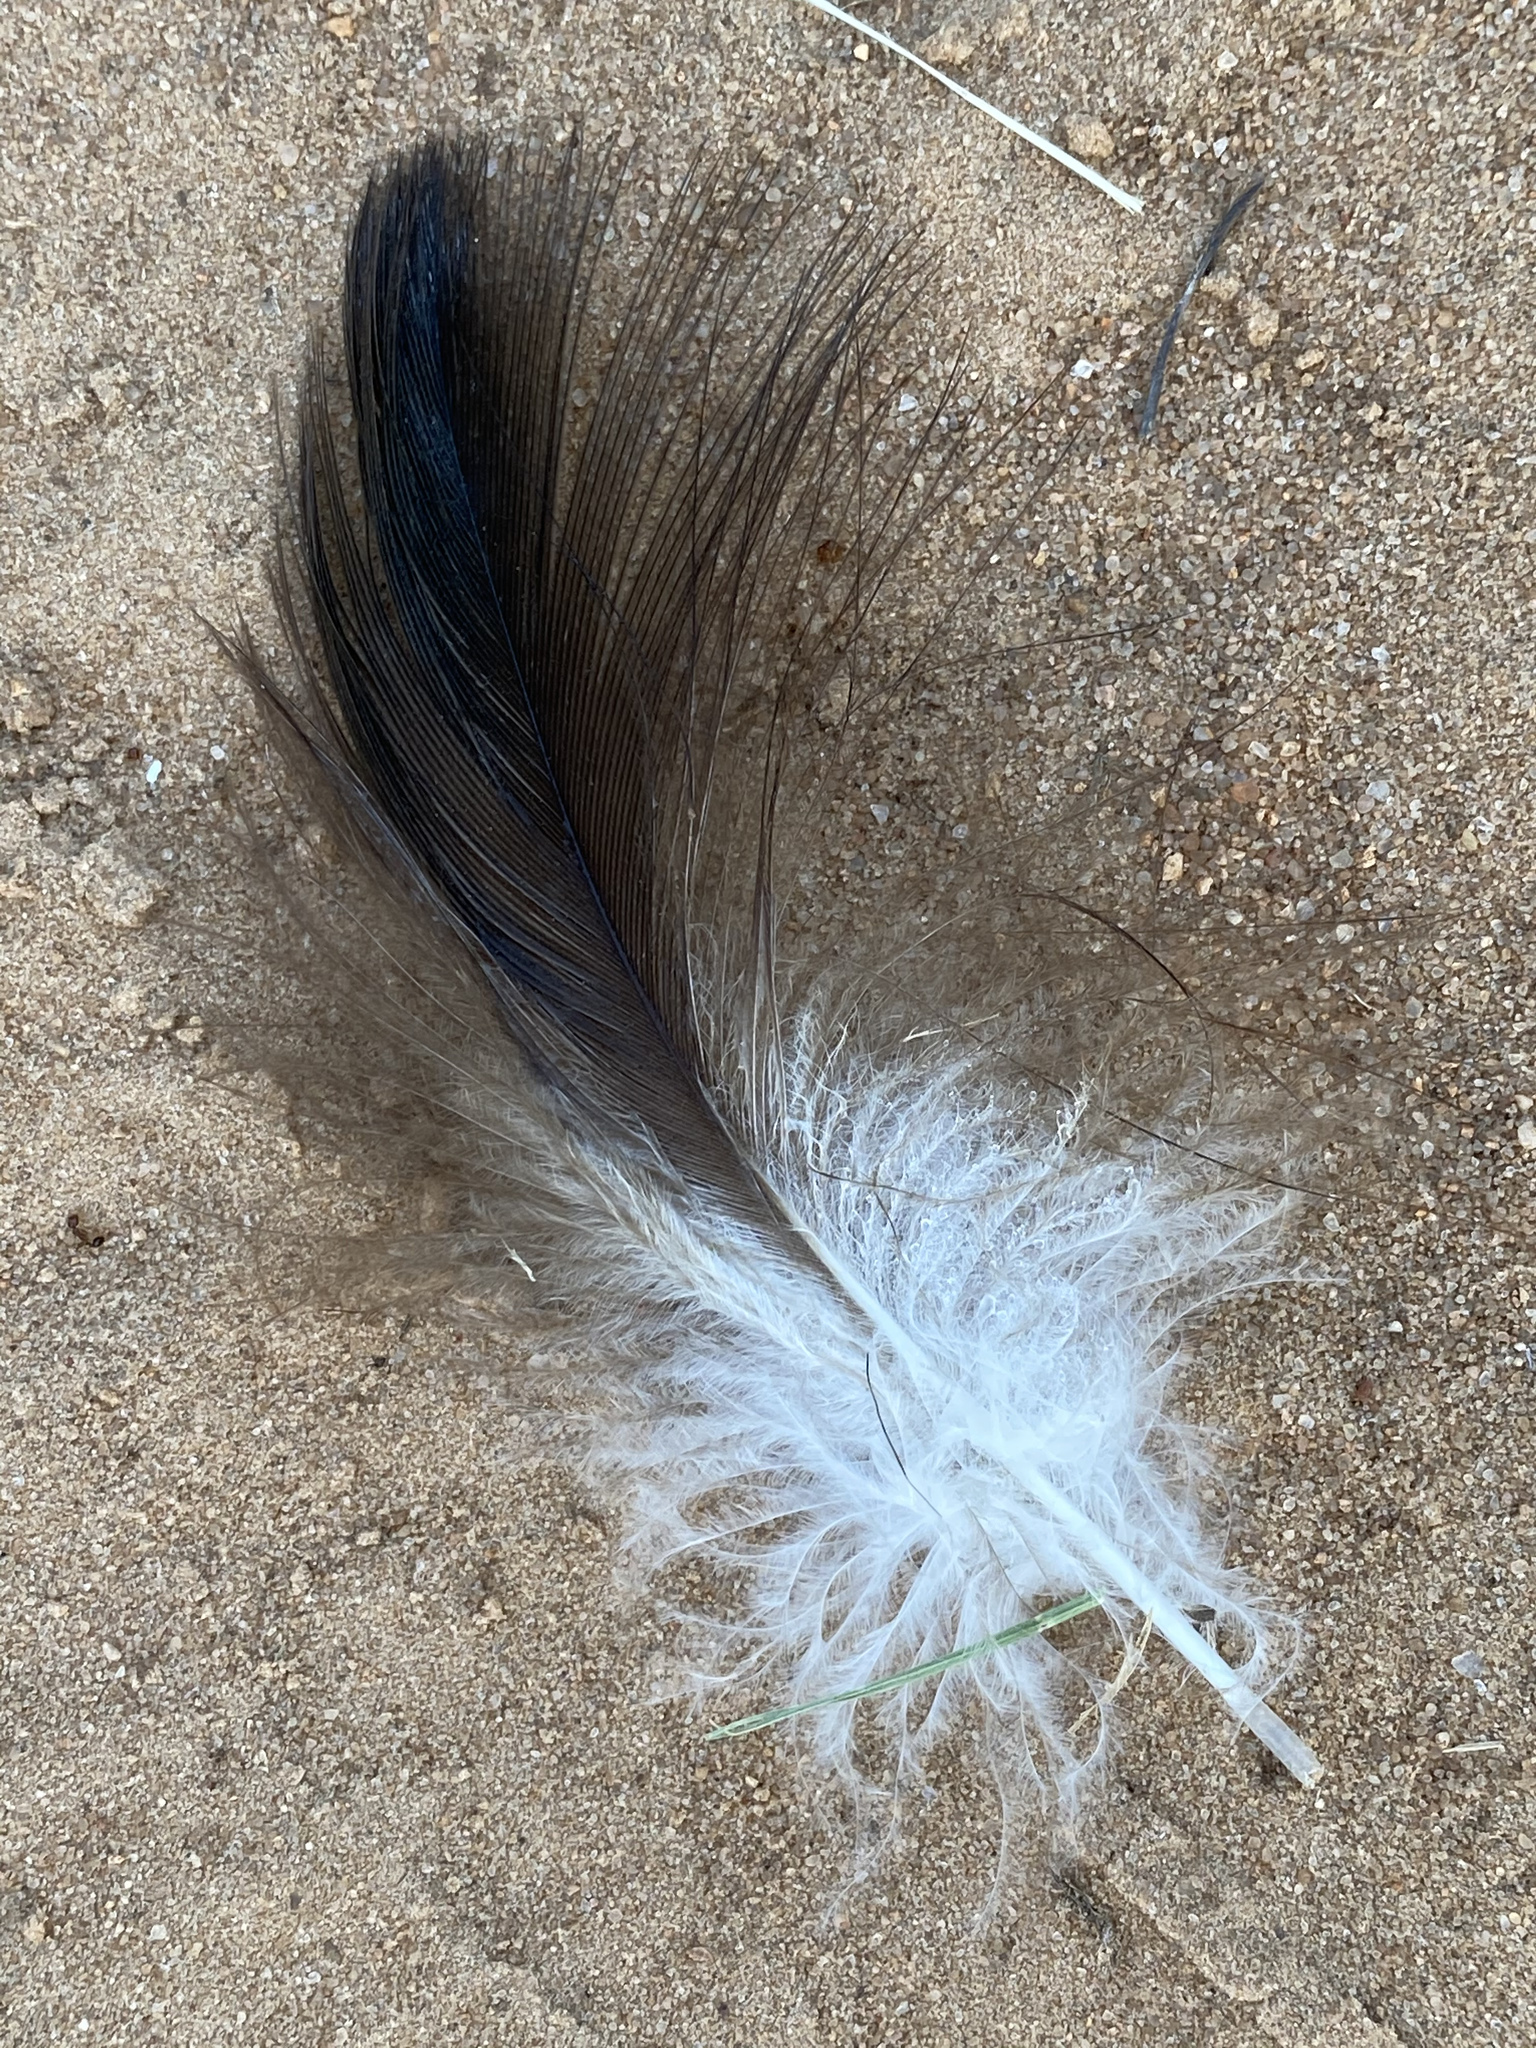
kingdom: Animalia
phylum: Chordata
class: Aves
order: Accipitriformes
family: Cathartidae
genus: Cathartes
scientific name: Cathartes aura
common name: Turkey vulture
